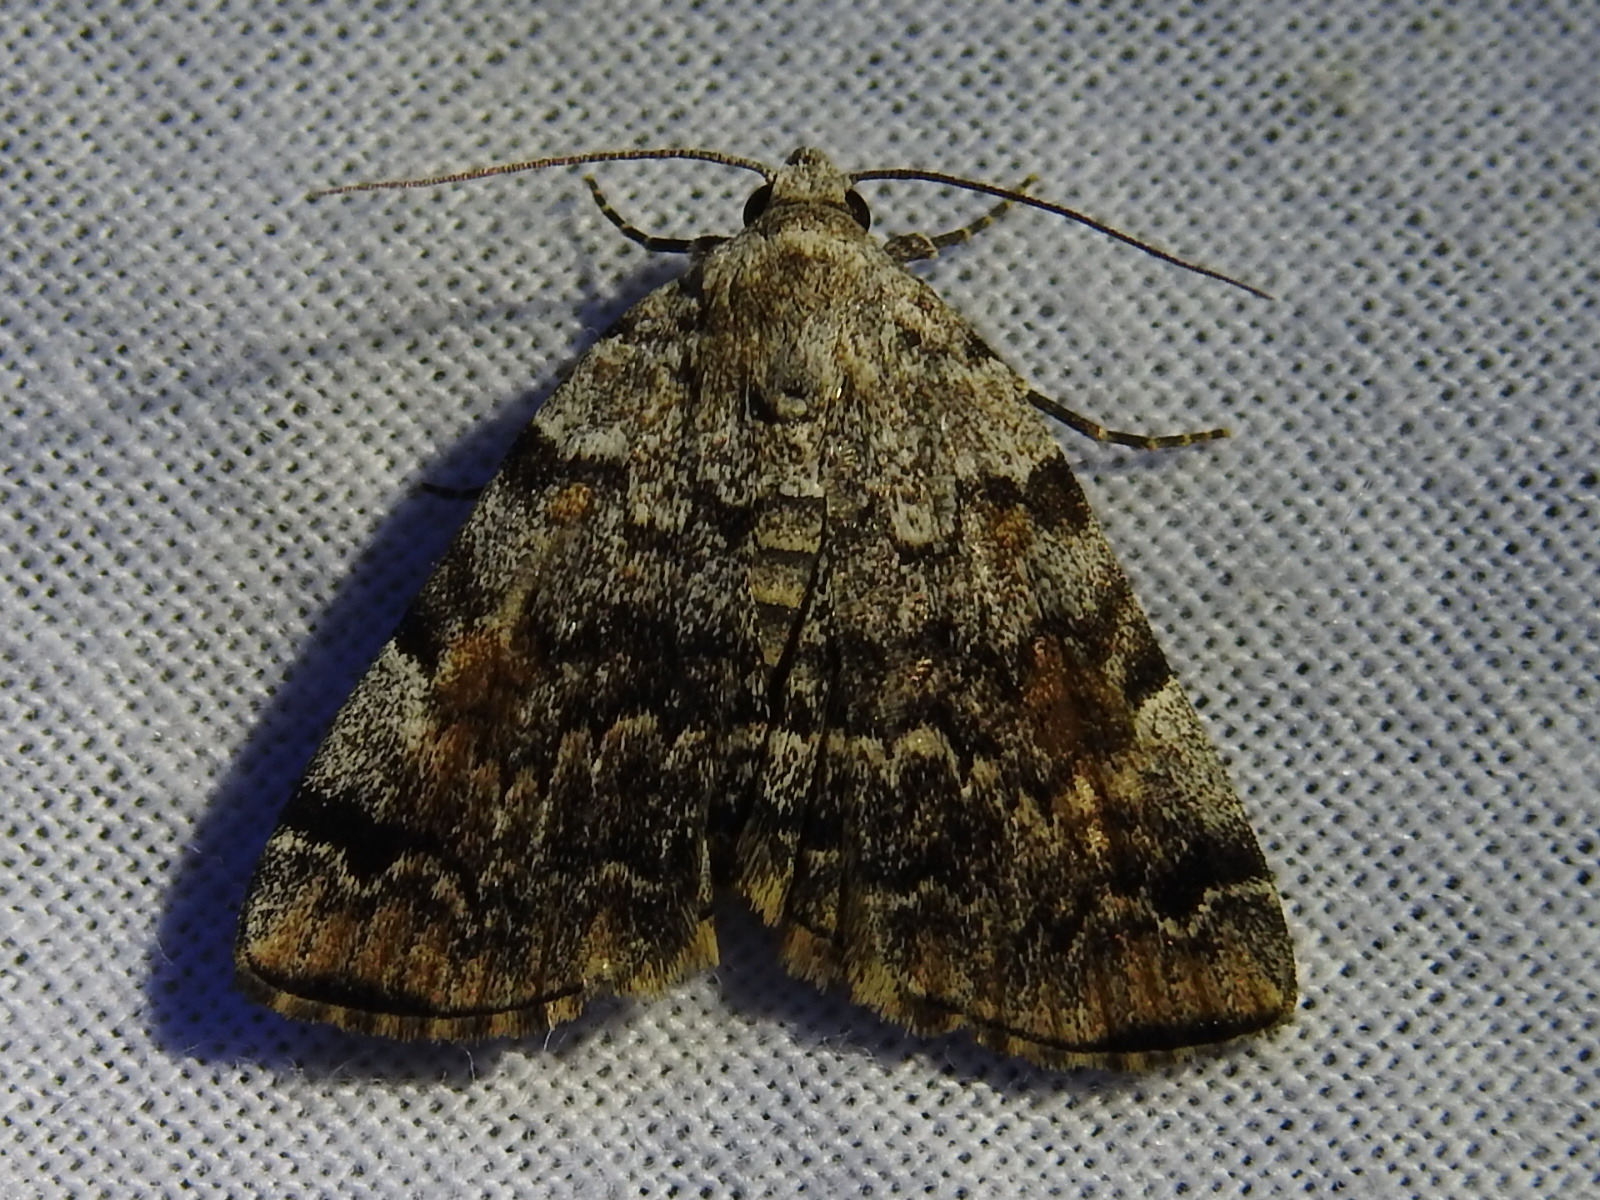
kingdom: Animalia
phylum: Arthropoda
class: Insecta
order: Lepidoptera
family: Erebidae
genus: Idia
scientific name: Idia americalis
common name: American idia moth
